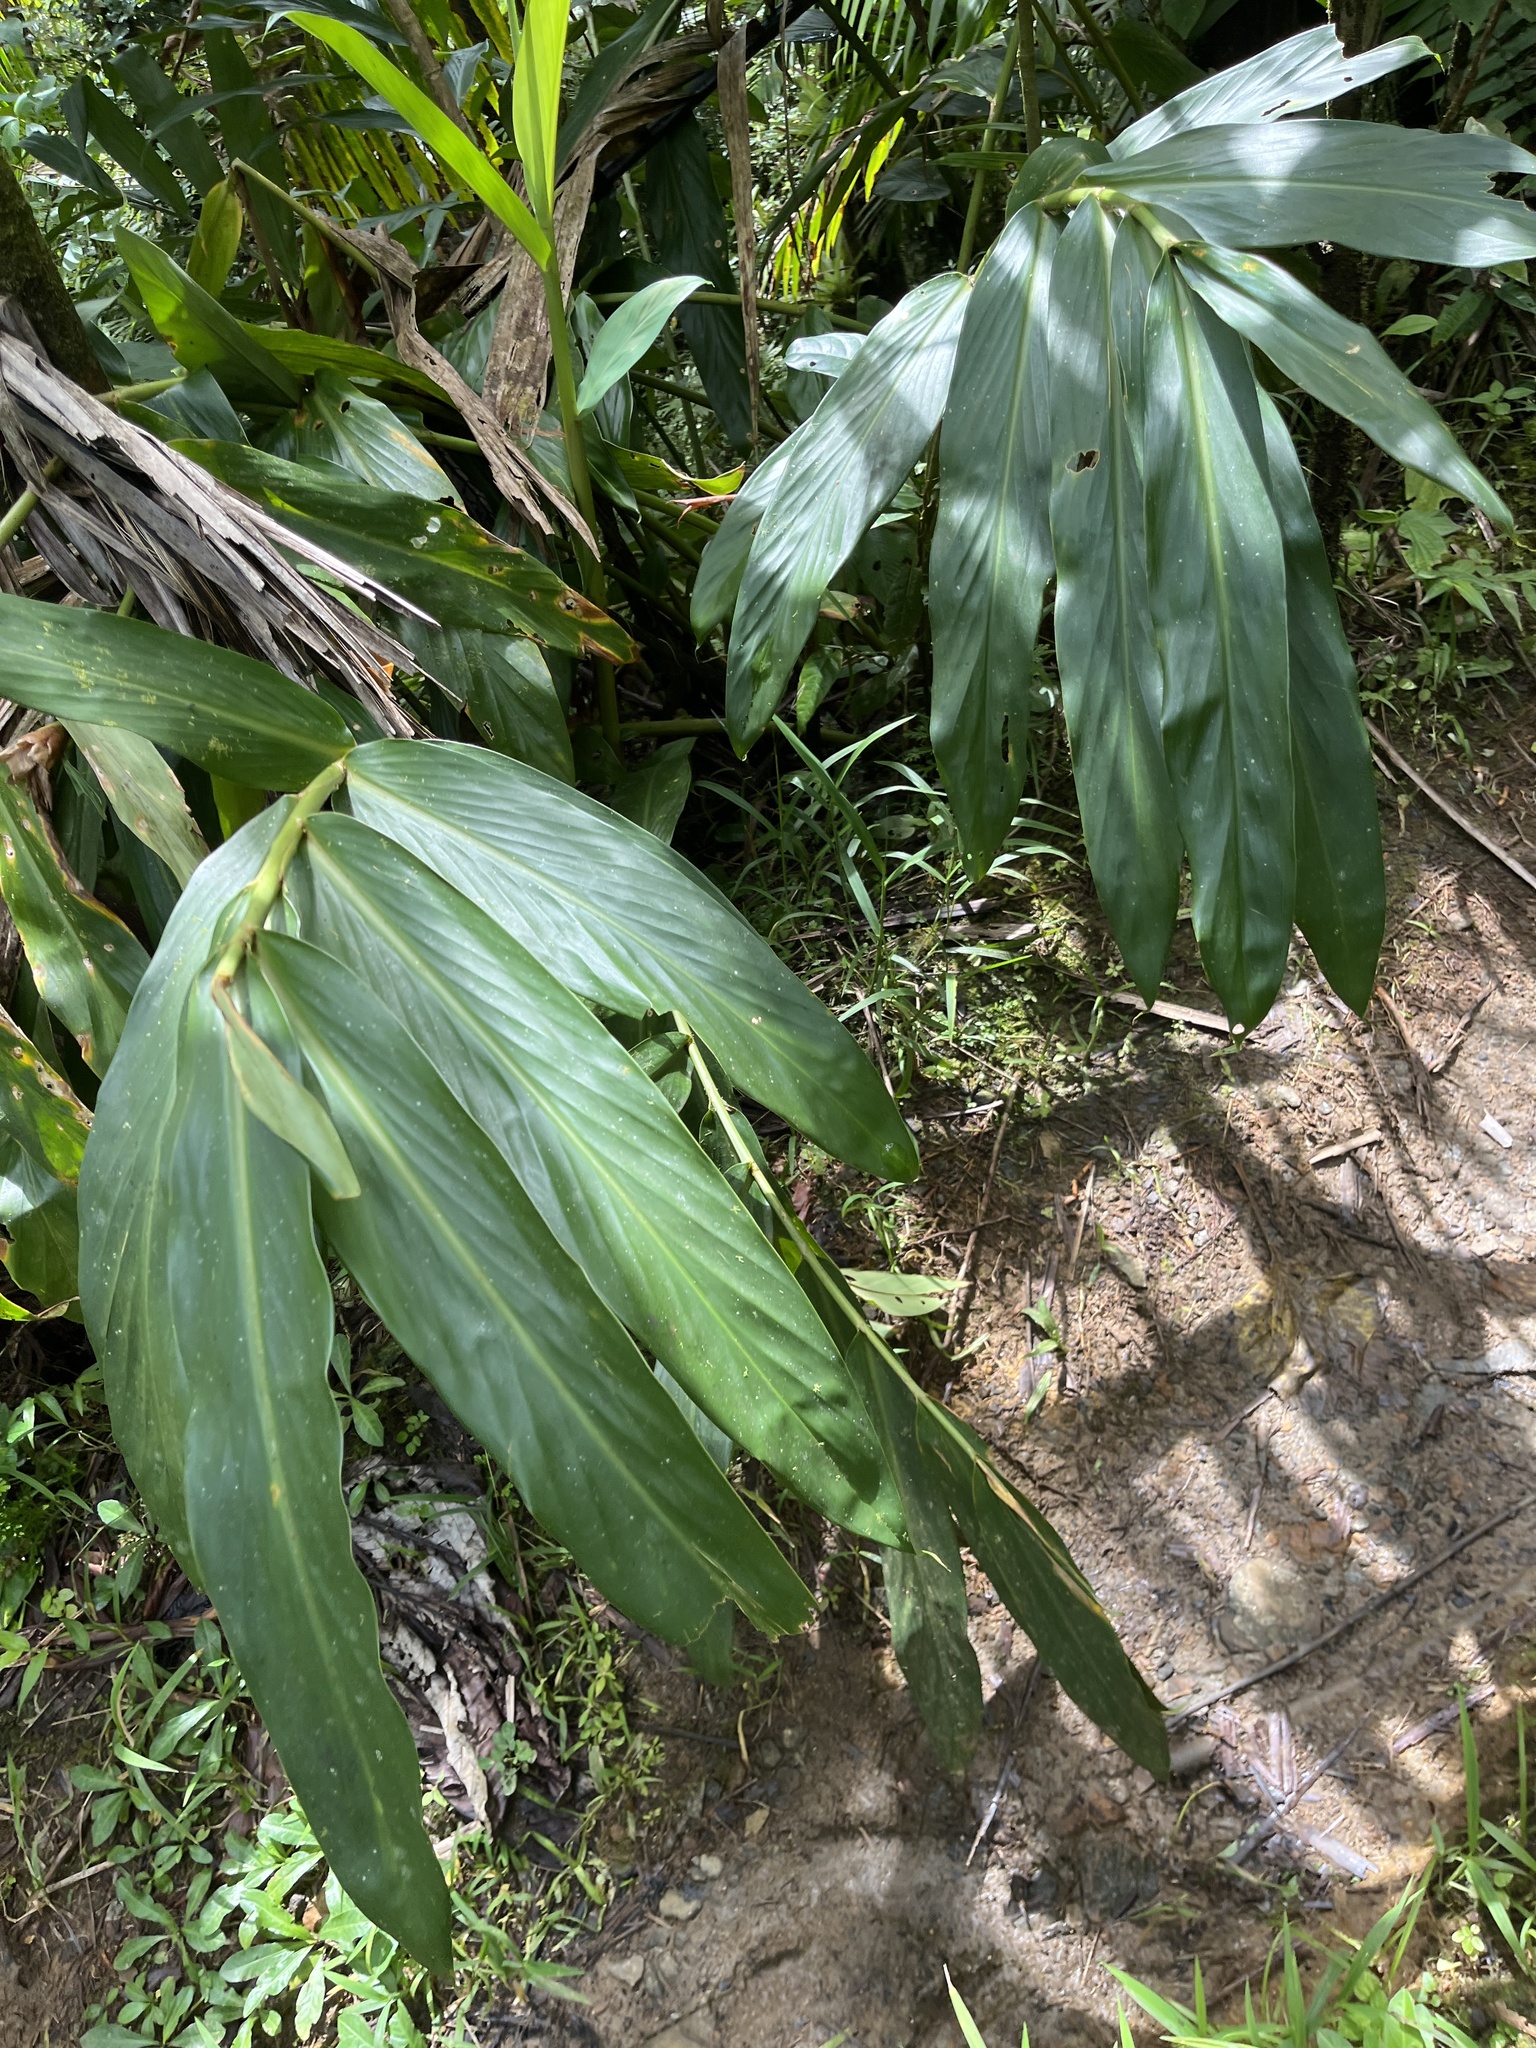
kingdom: Plantae
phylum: Tracheophyta
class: Liliopsida
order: Zingiberales
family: Zingiberaceae
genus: Hedychium
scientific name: Hedychium coronarium
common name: White garland-lily
